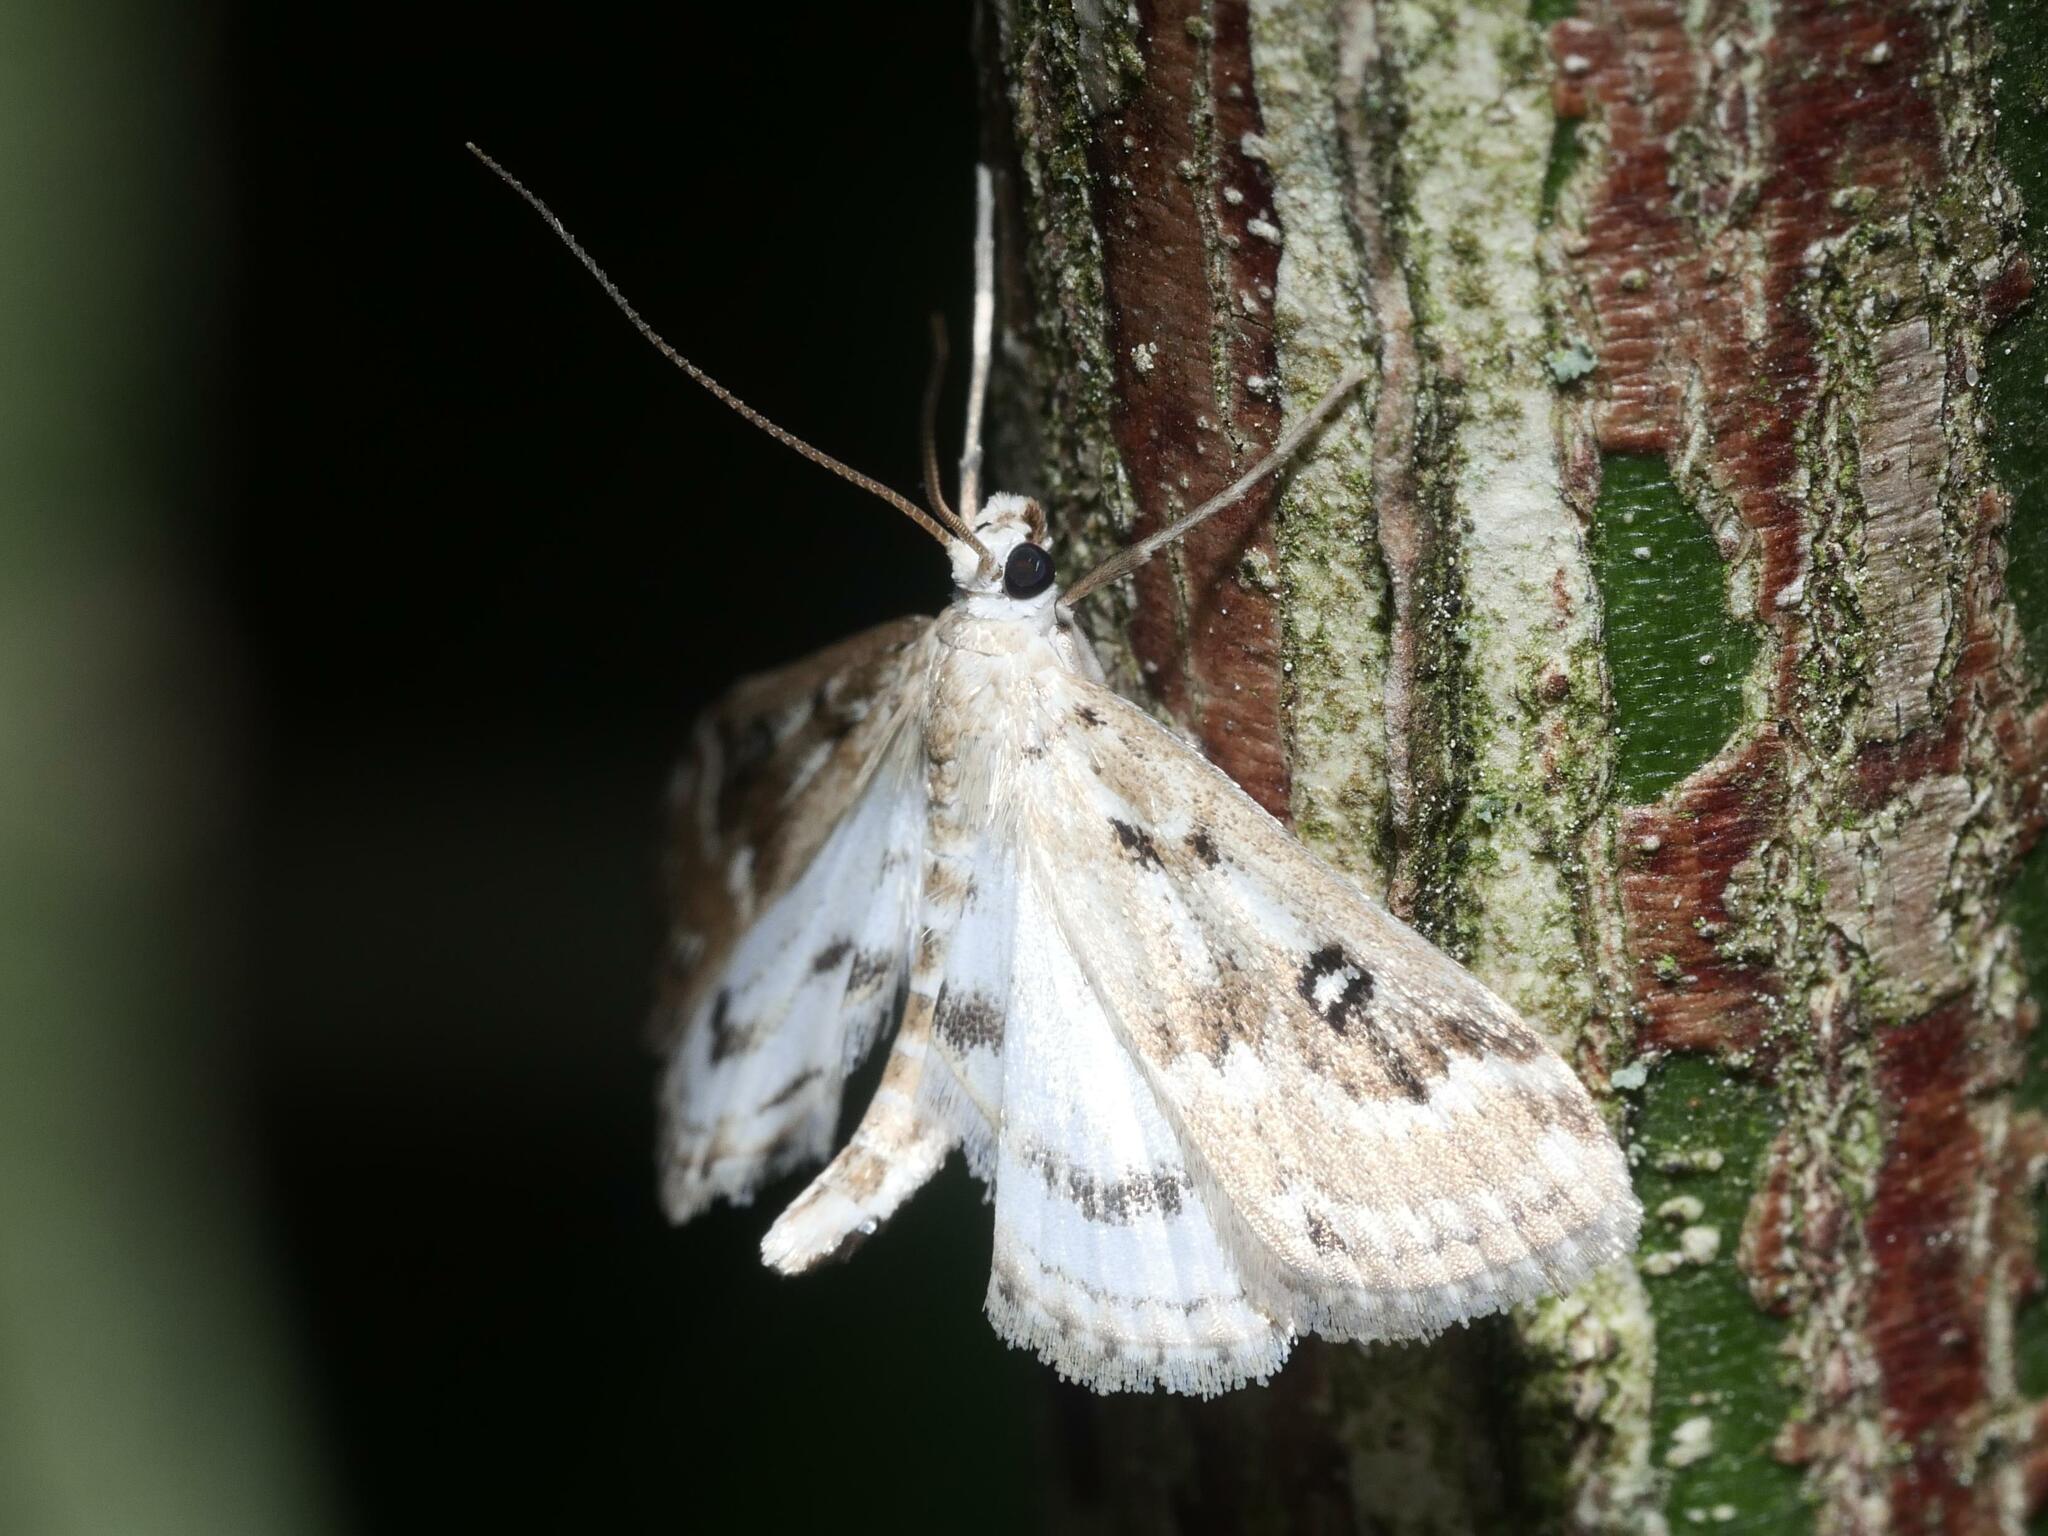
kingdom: Animalia
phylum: Arthropoda
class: Insecta
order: Lepidoptera
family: Crambidae
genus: Parapoynx
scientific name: Parapoynx stratiotata
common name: Ringed china-mark
